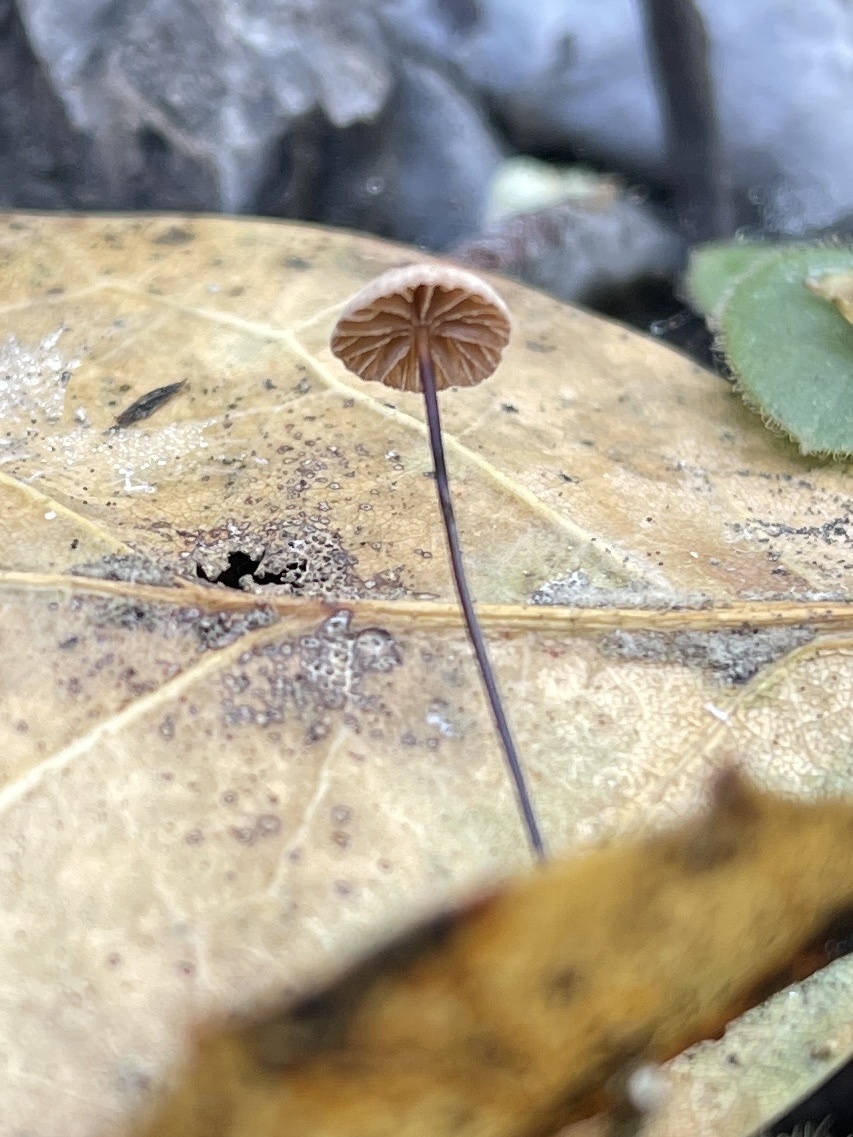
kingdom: Fungi
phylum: Basidiomycota
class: Agaricomycetes
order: Agaricales
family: Omphalotaceae
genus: Collybiopsis
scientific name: Collybiopsis quercophila
